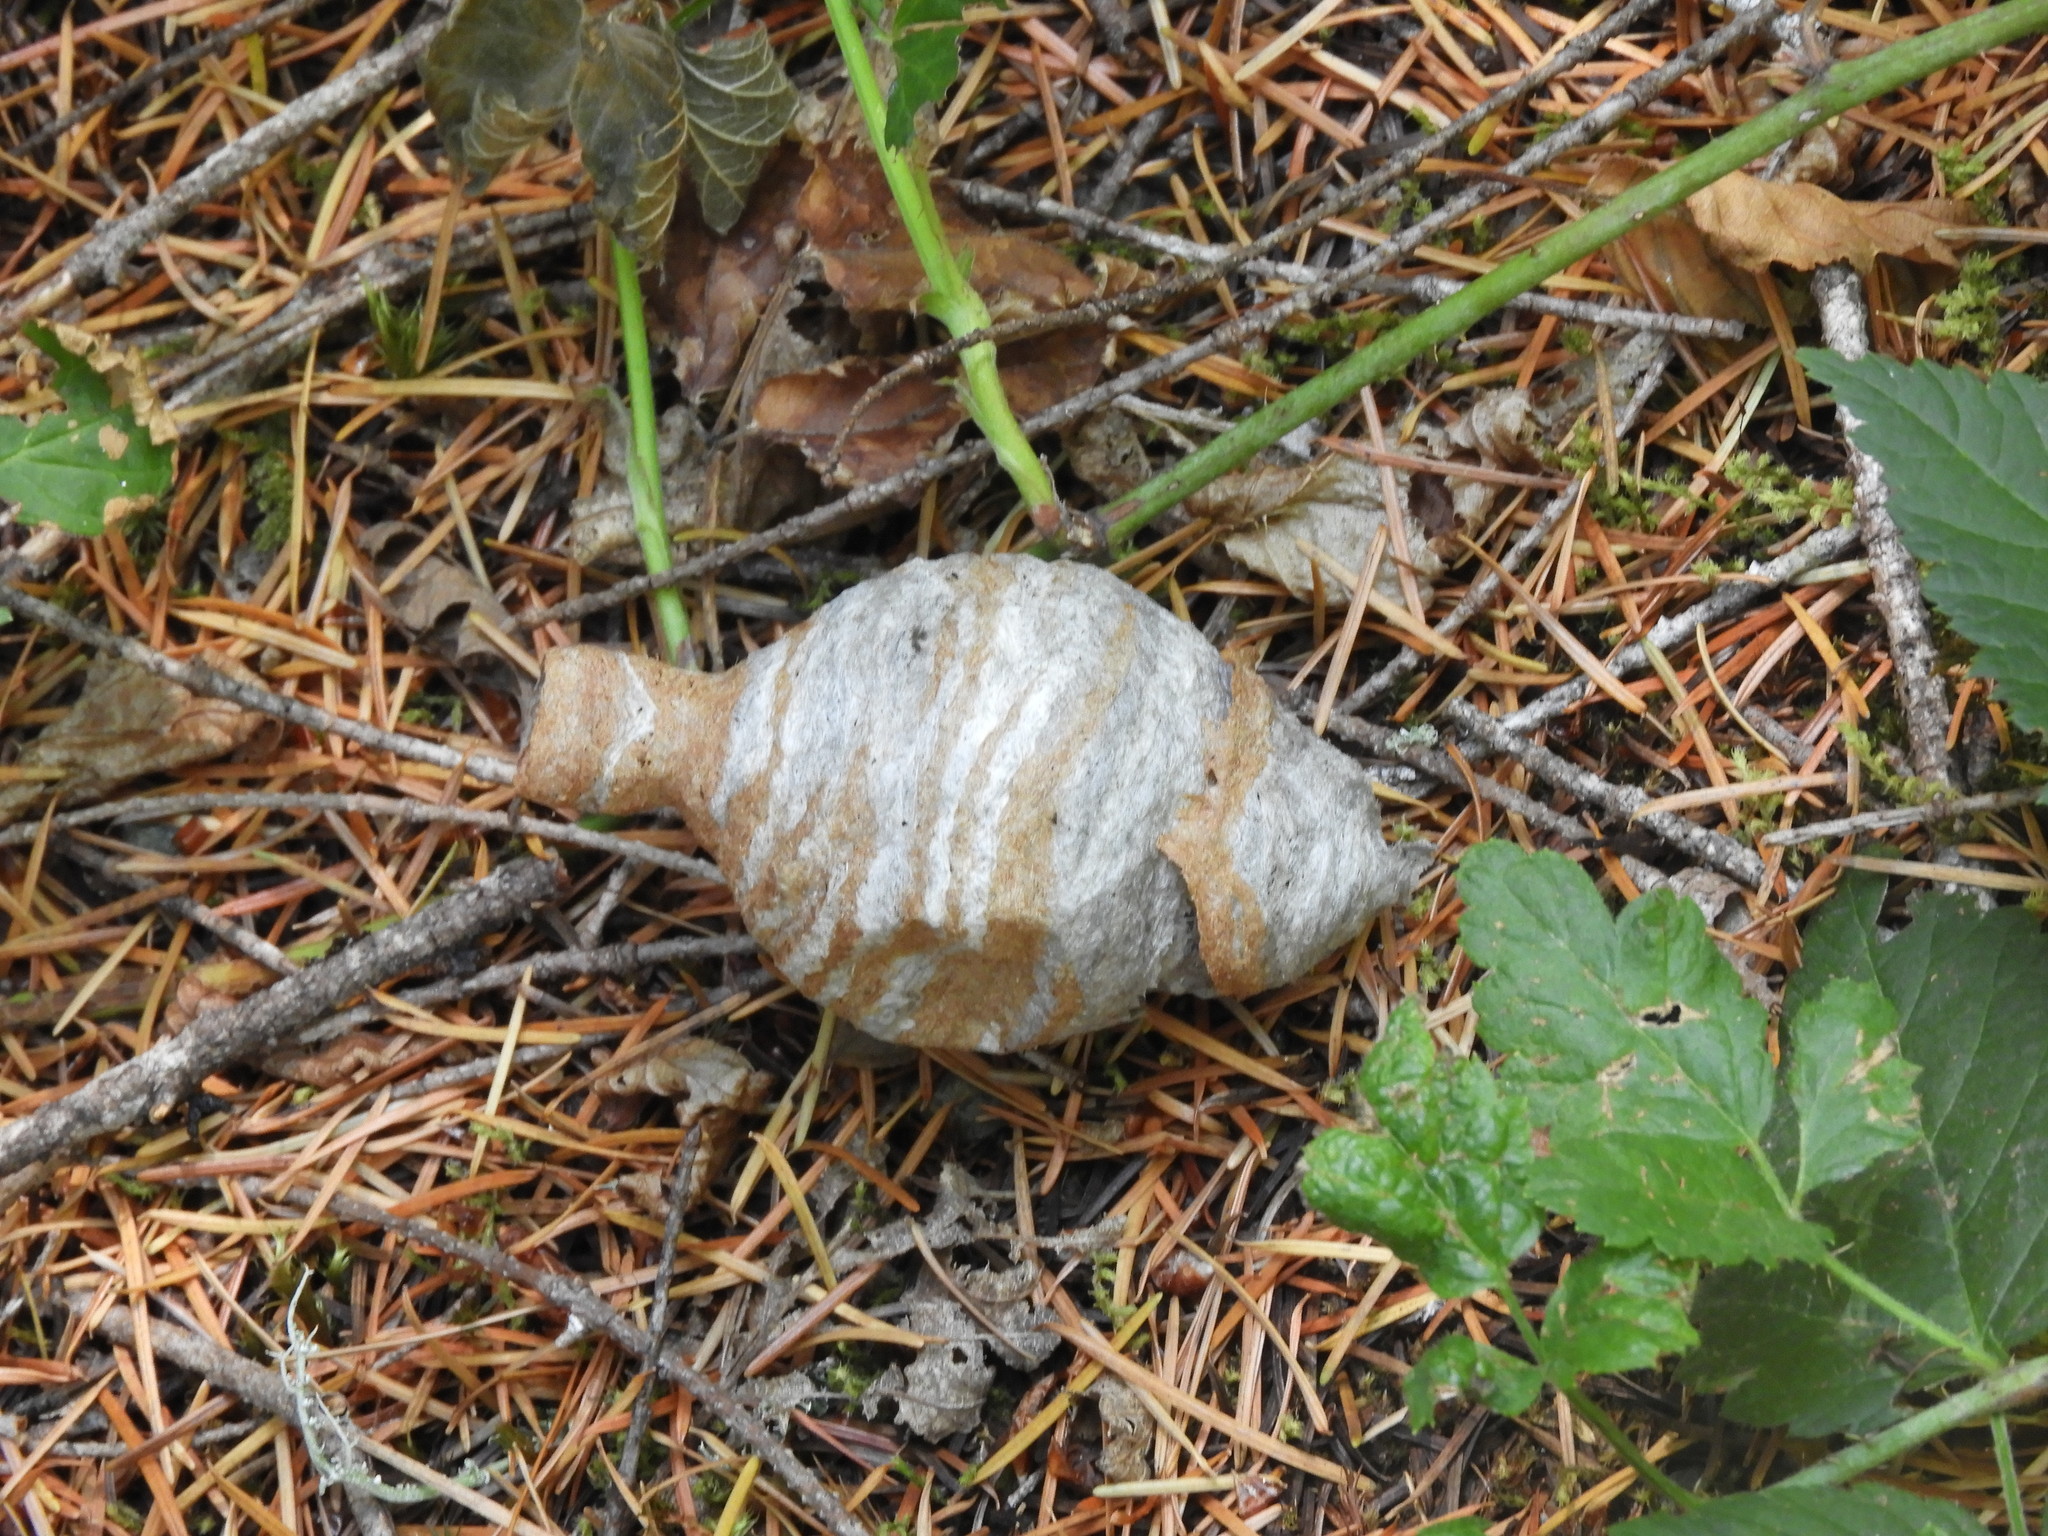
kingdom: Animalia
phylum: Arthropoda
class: Insecta
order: Hymenoptera
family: Vespidae
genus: Dolichovespula
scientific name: Dolichovespula maculata
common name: Bald-faced hornet
